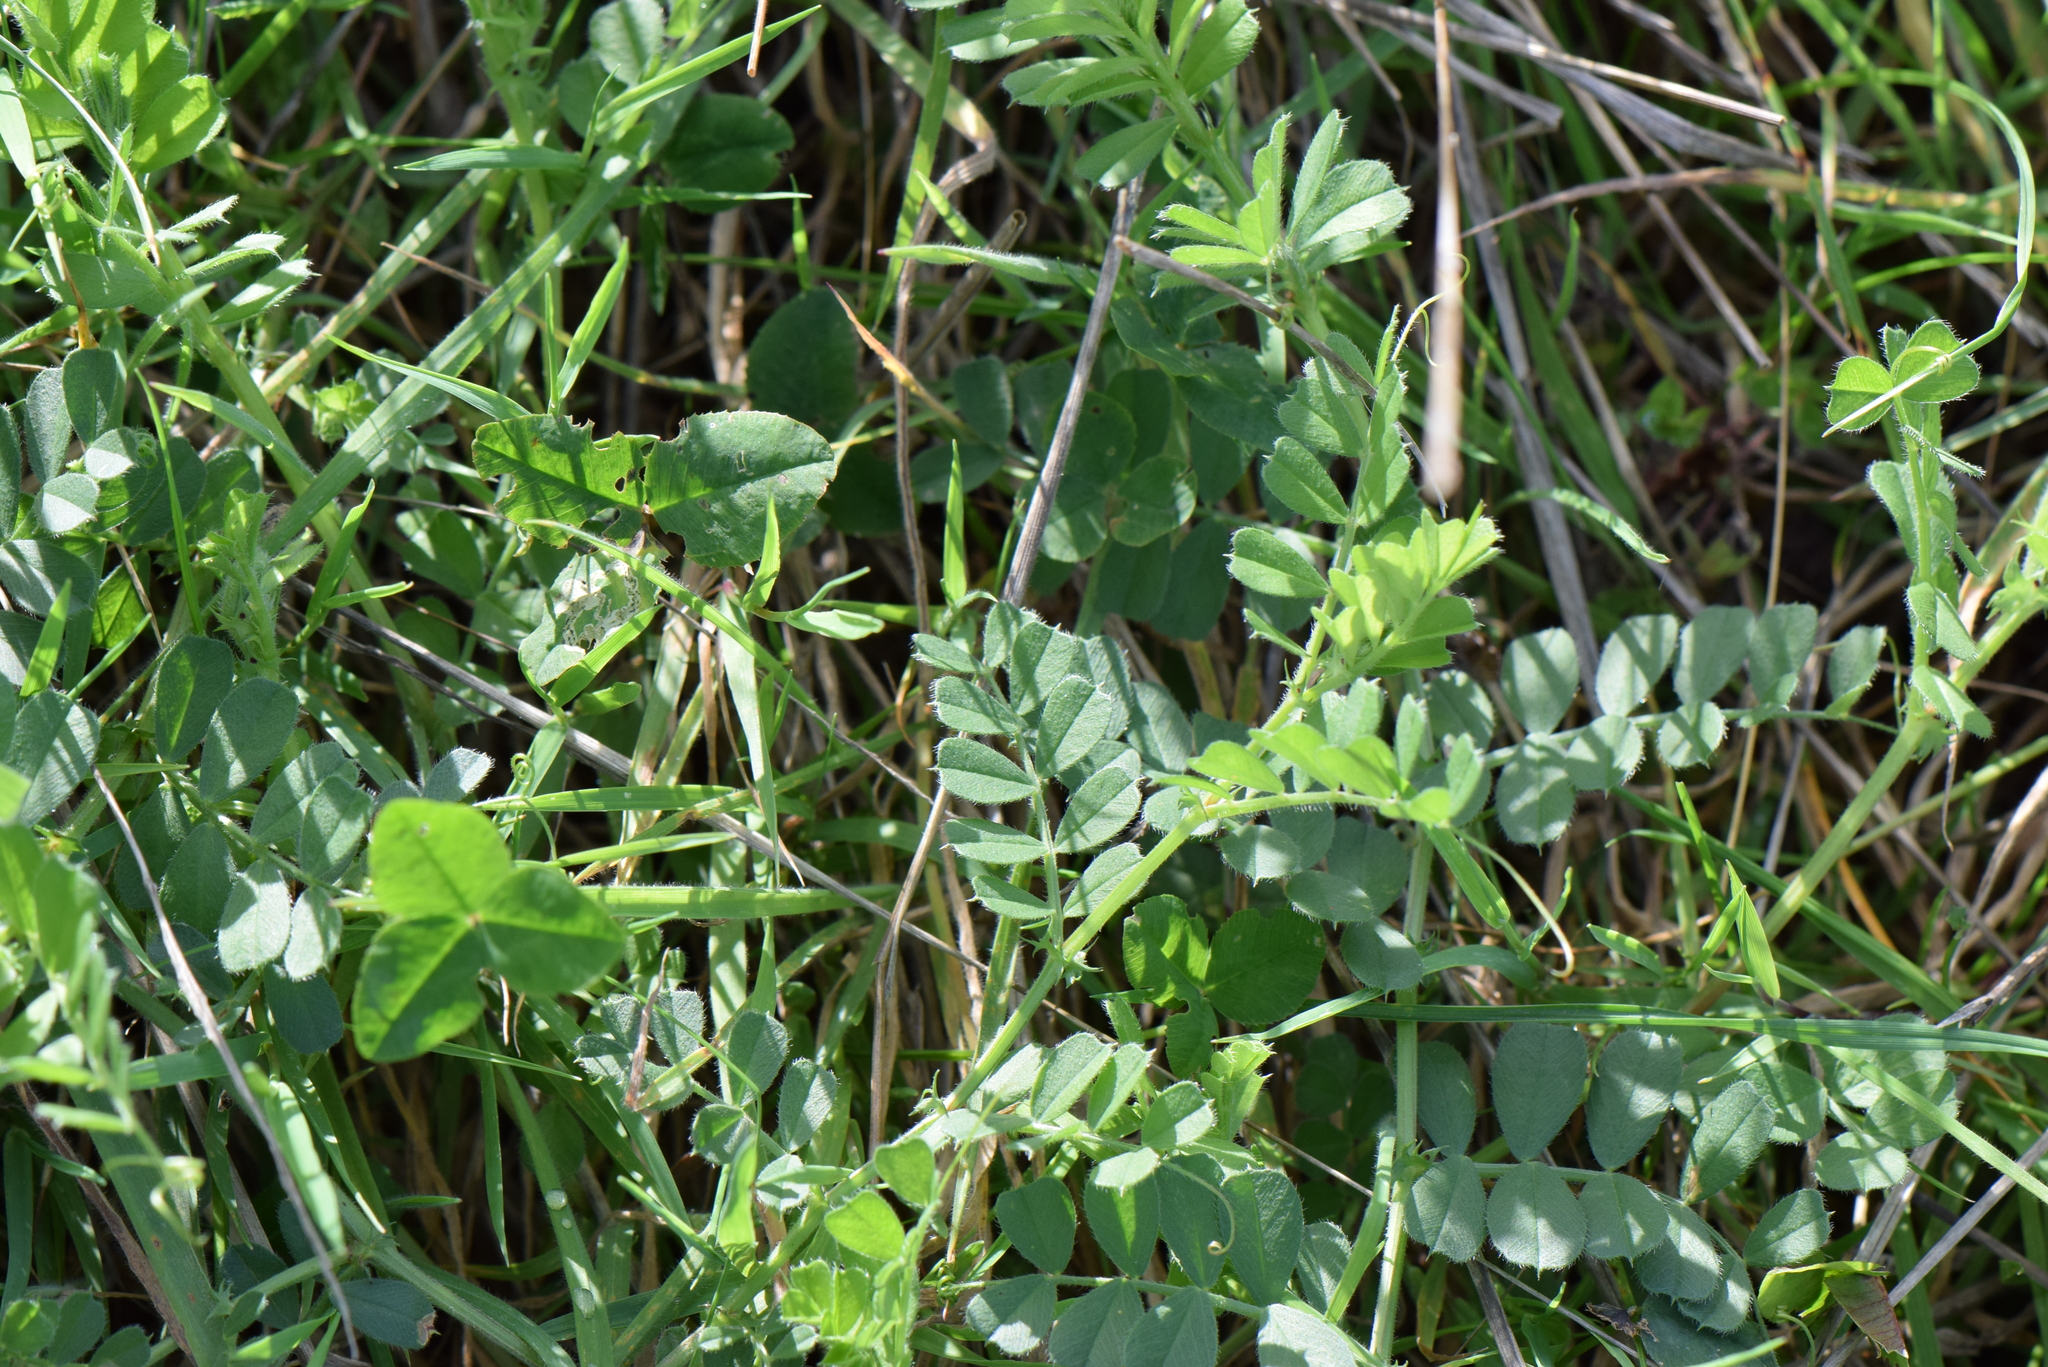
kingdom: Plantae
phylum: Tracheophyta
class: Magnoliopsida
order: Fabales
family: Fabaceae
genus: Vicia
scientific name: Vicia sativa
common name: Garden vetch
